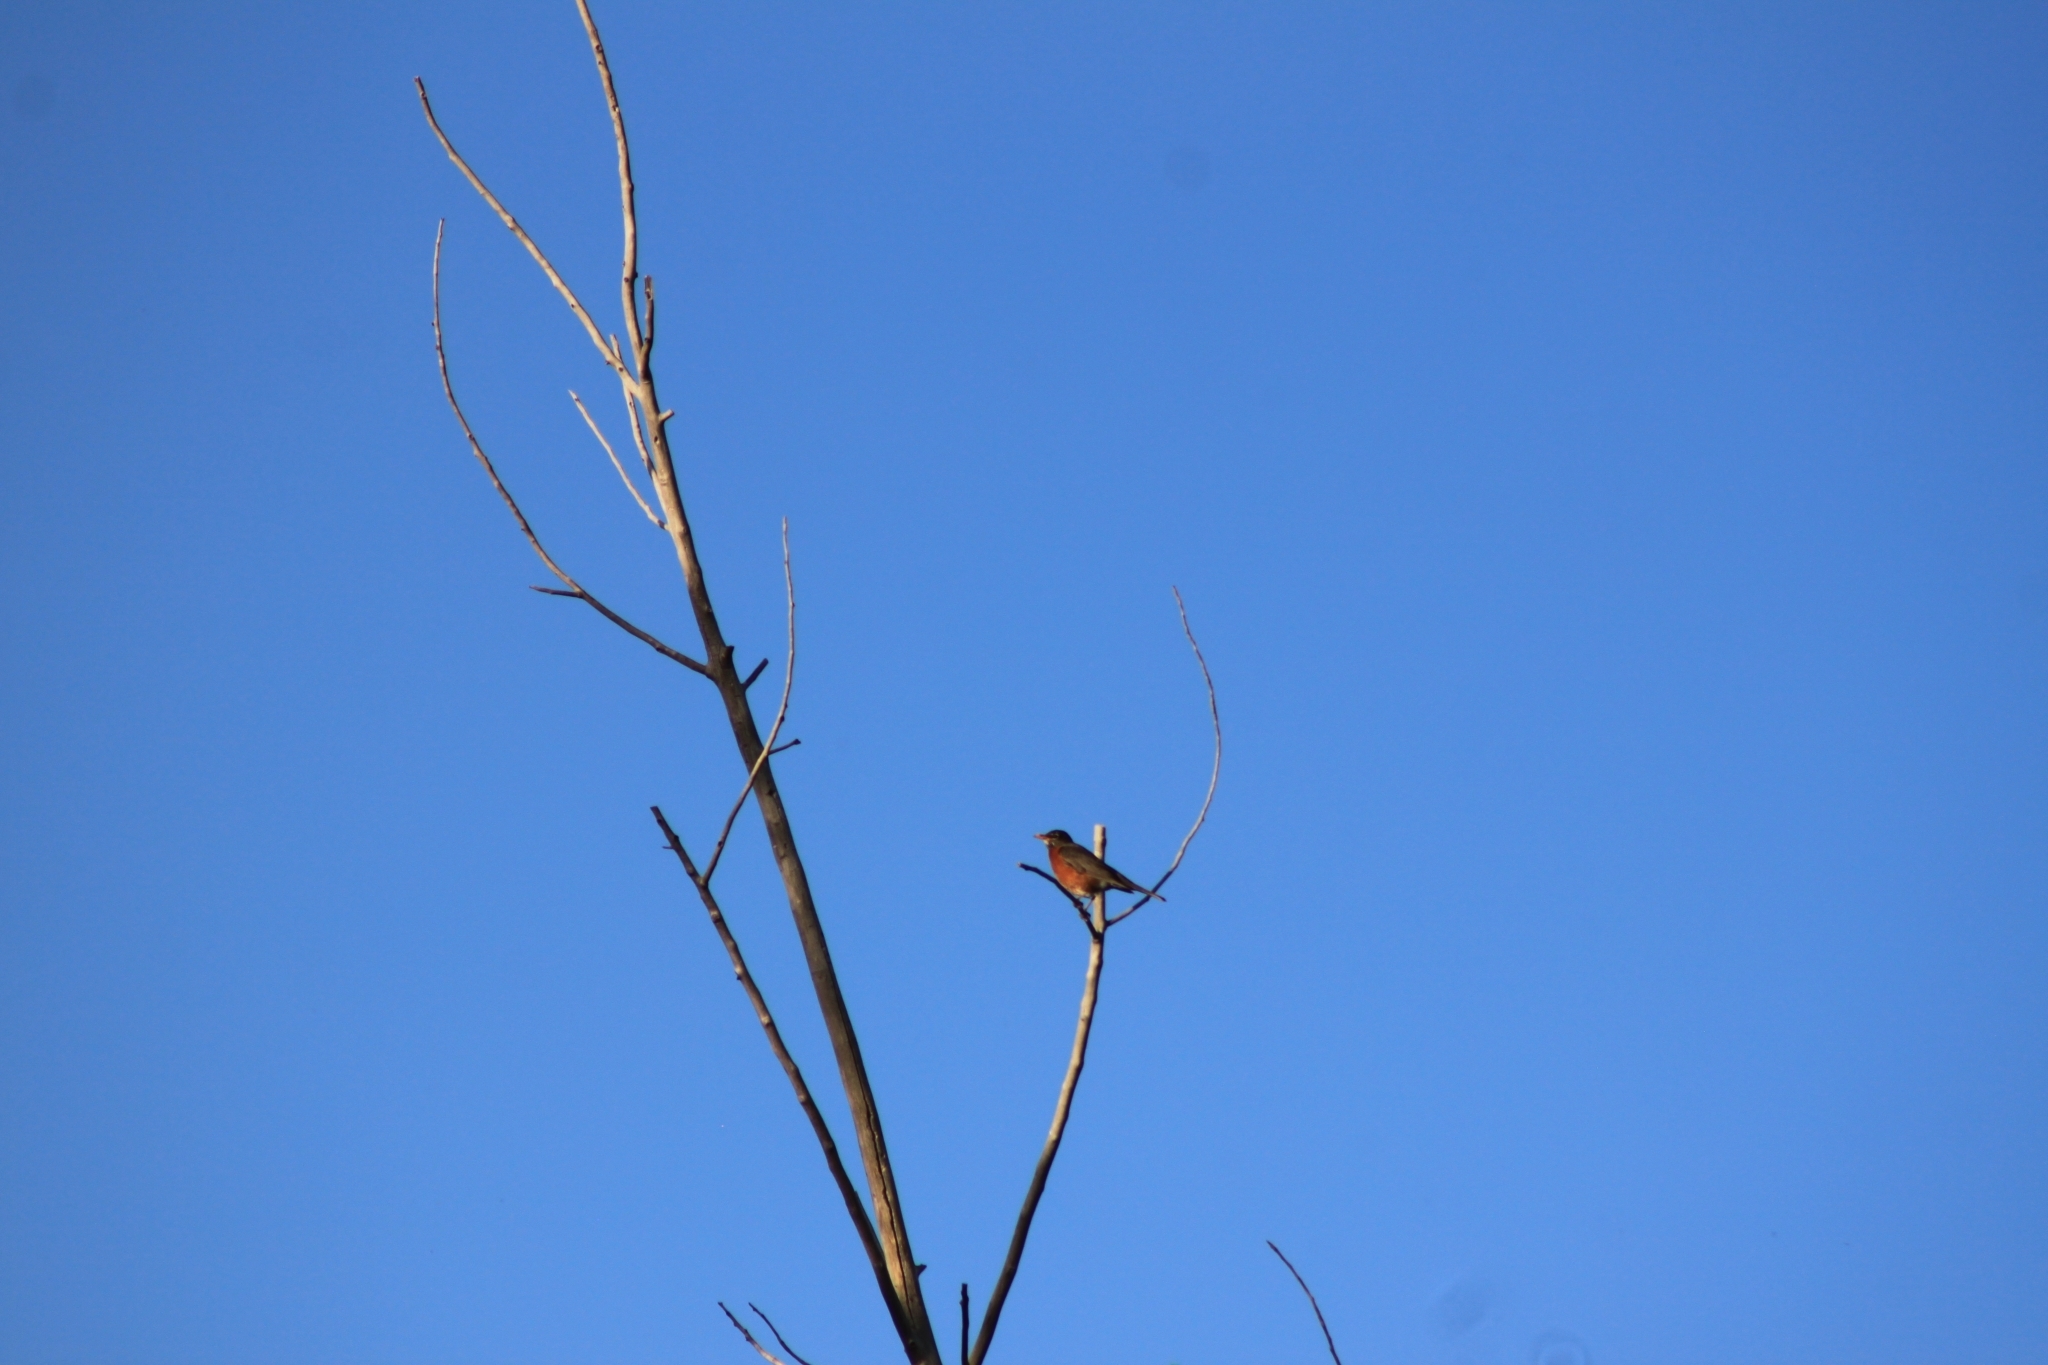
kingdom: Animalia
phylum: Chordata
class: Aves
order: Passeriformes
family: Turdidae
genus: Turdus
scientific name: Turdus migratorius
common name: American robin
